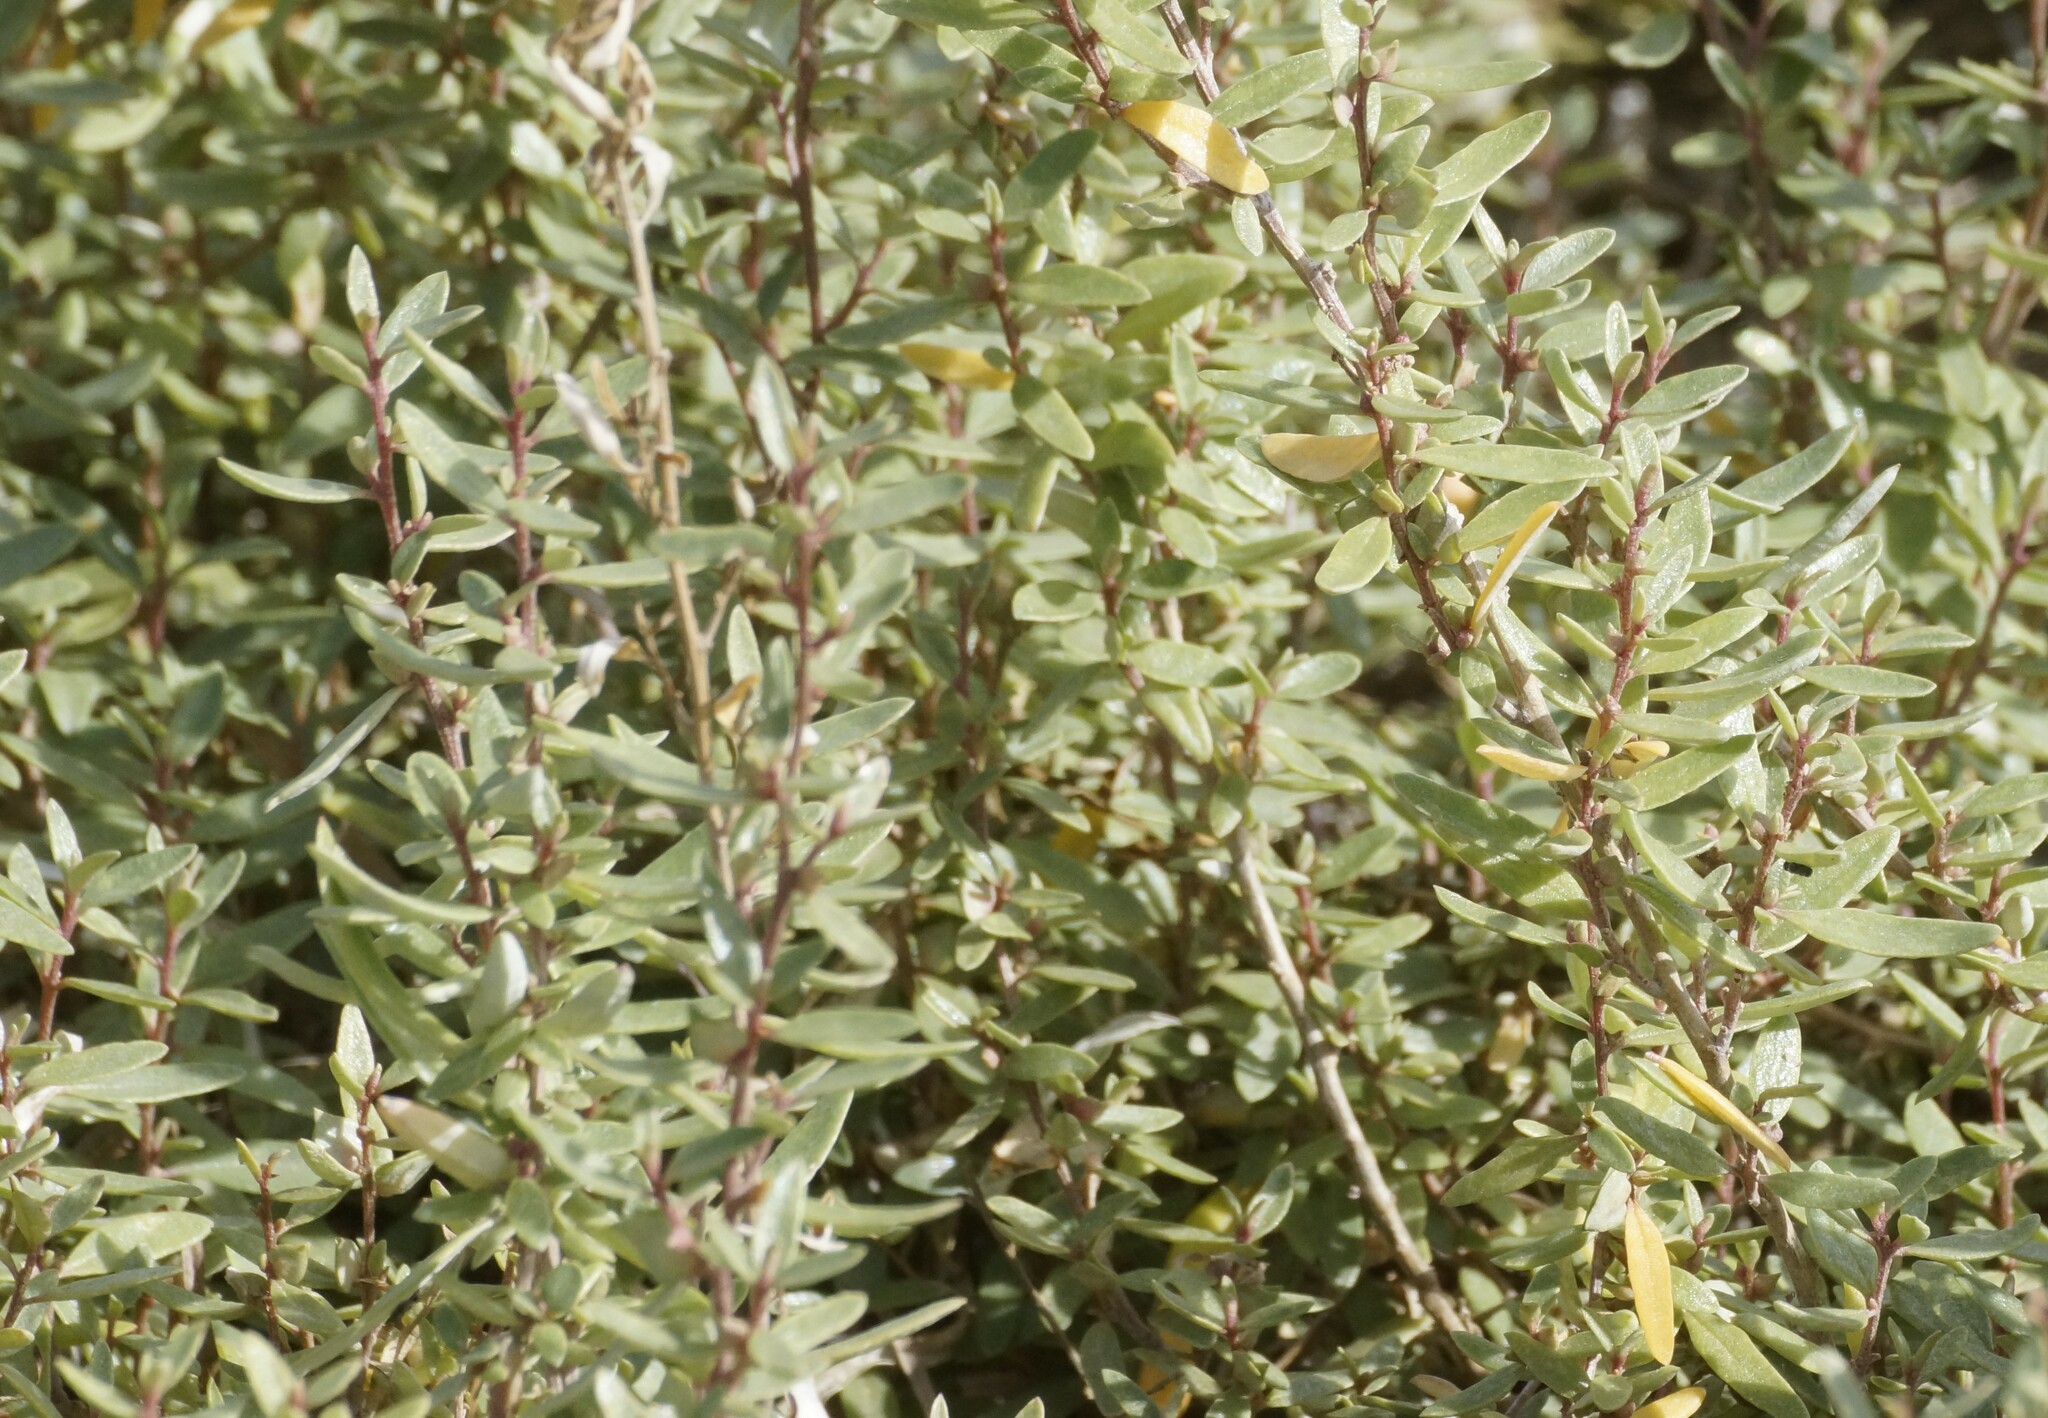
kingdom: Plantae
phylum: Tracheophyta
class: Magnoliopsida
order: Caryophyllales
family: Amaranthaceae
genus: Atriplex
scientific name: Atriplex paludosa
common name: Marsh saltbush
